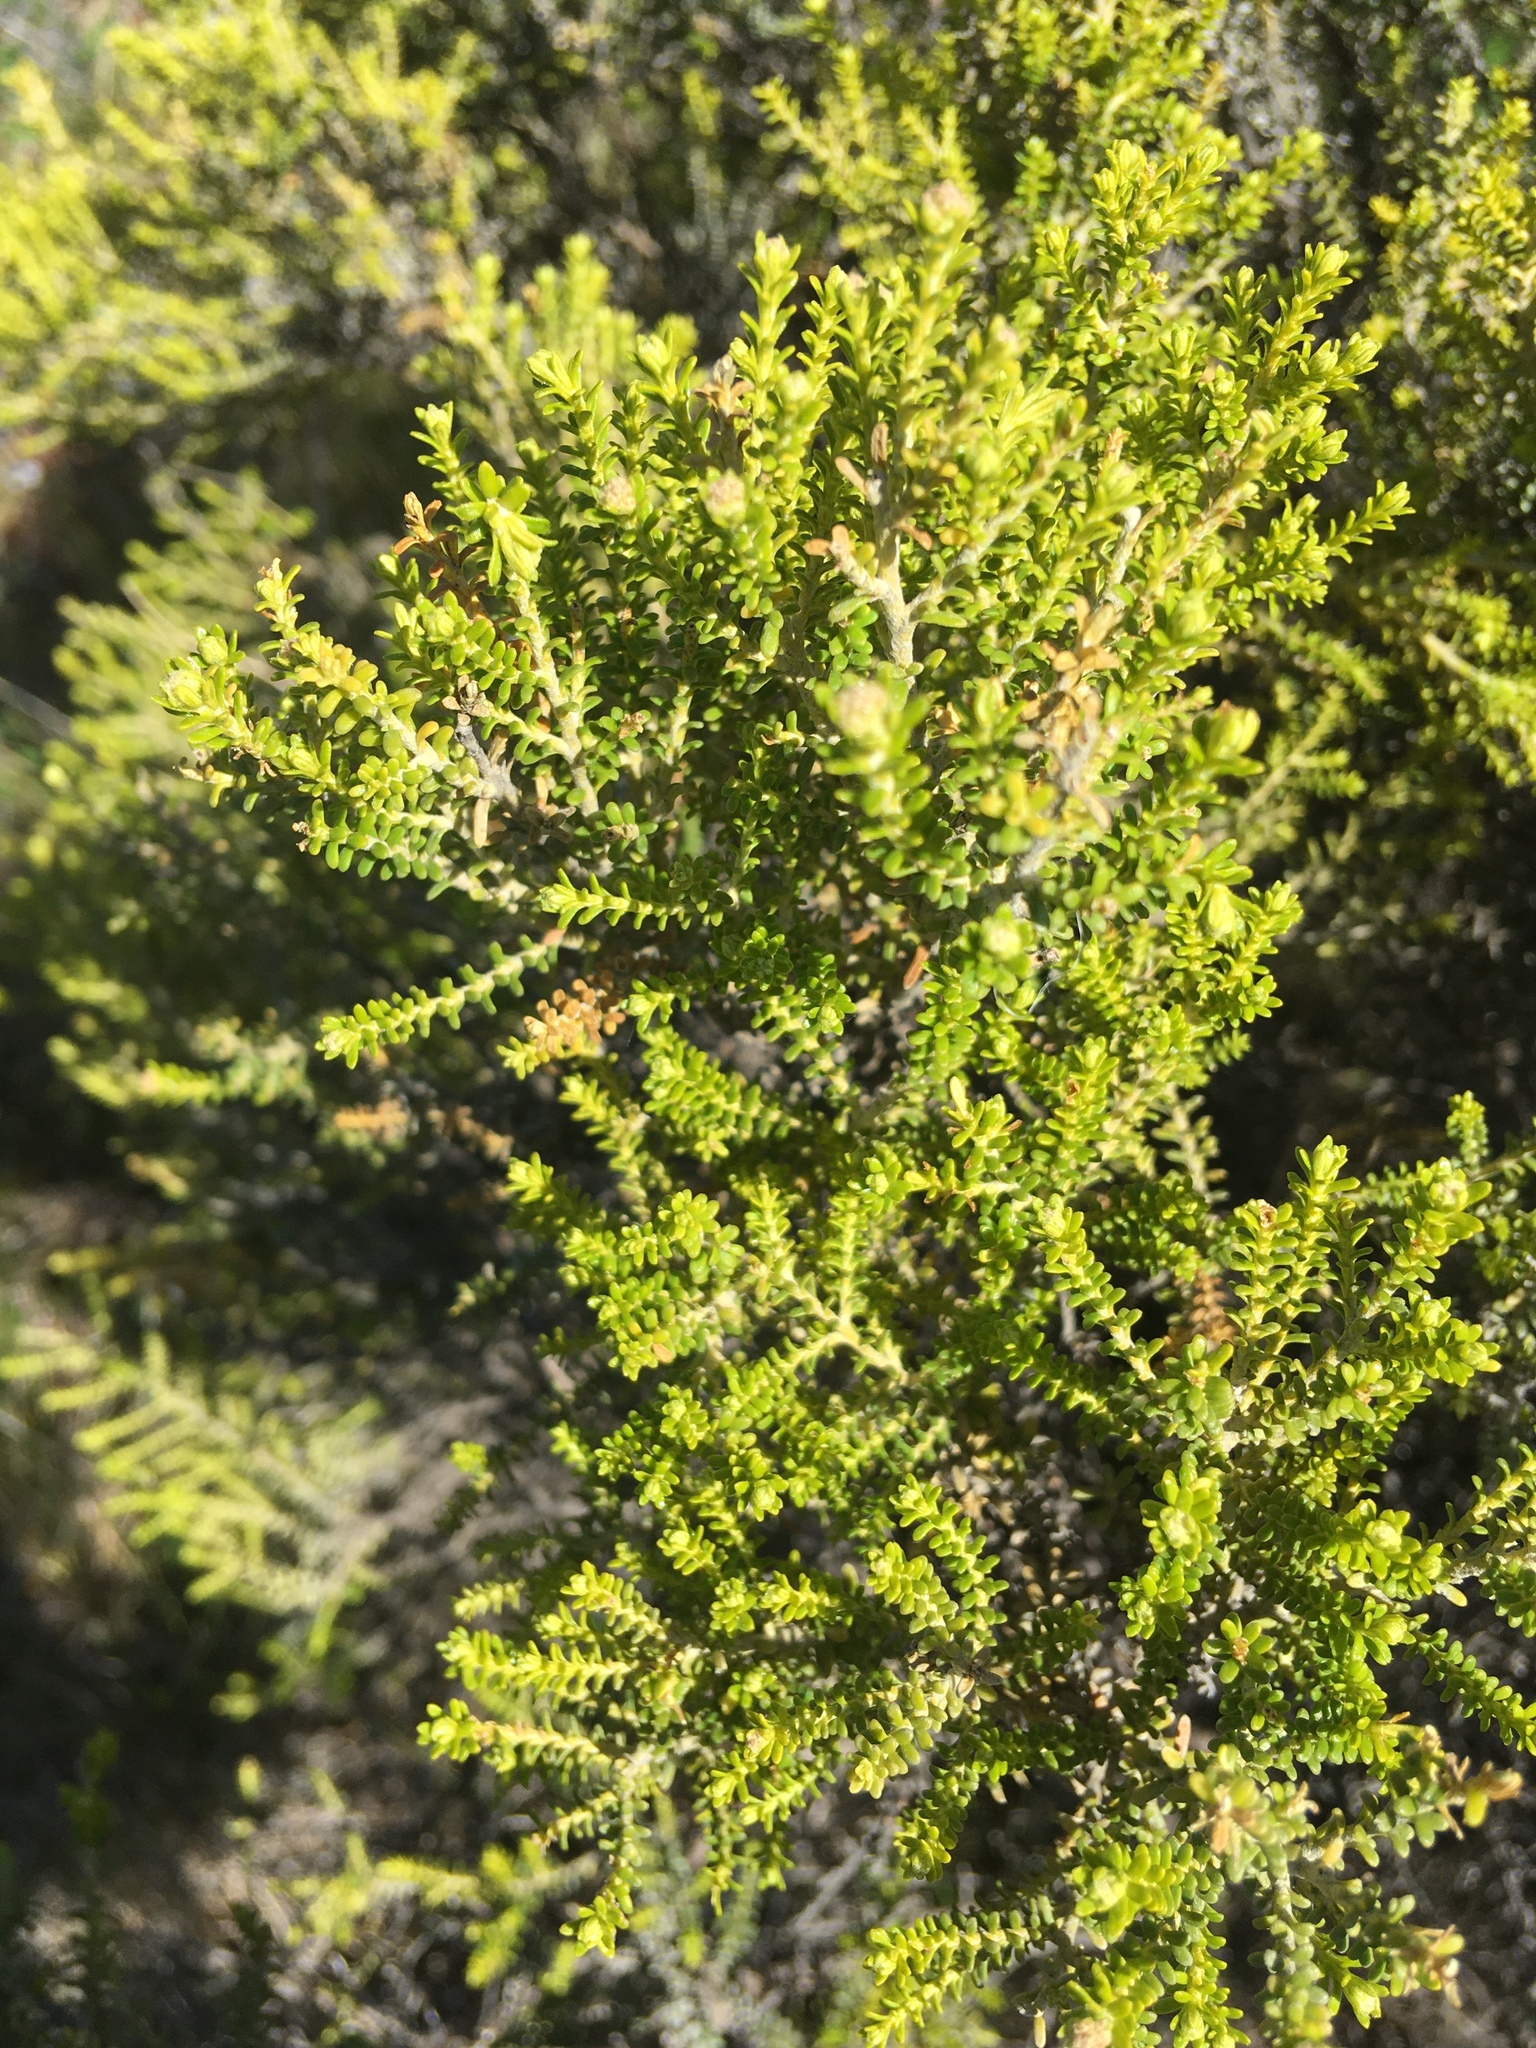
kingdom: Plantae
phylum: Tracheophyta
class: Magnoliopsida
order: Asterales
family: Asteraceae
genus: Ozothamnus
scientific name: Ozothamnus leptophyllus
